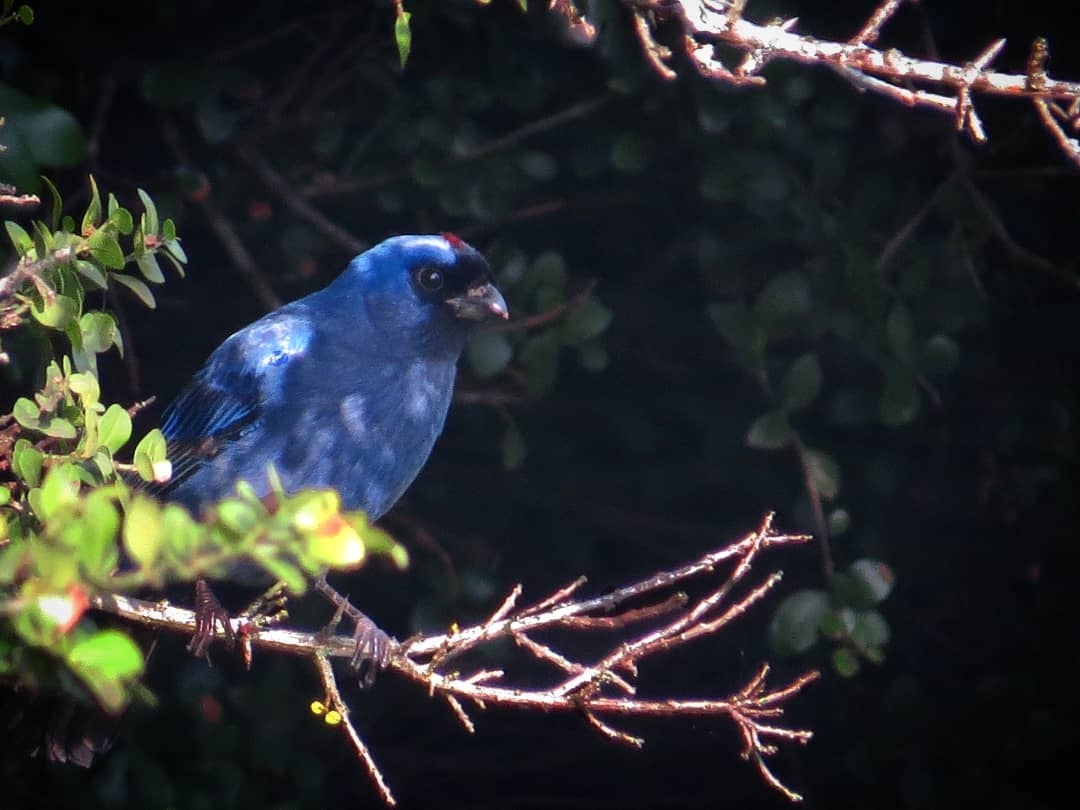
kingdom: Animalia
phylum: Chordata
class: Aves
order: Passeriformes
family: Thraupidae
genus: Stephanophorus
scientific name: Stephanophorus diadematus
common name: Diademed tanager
